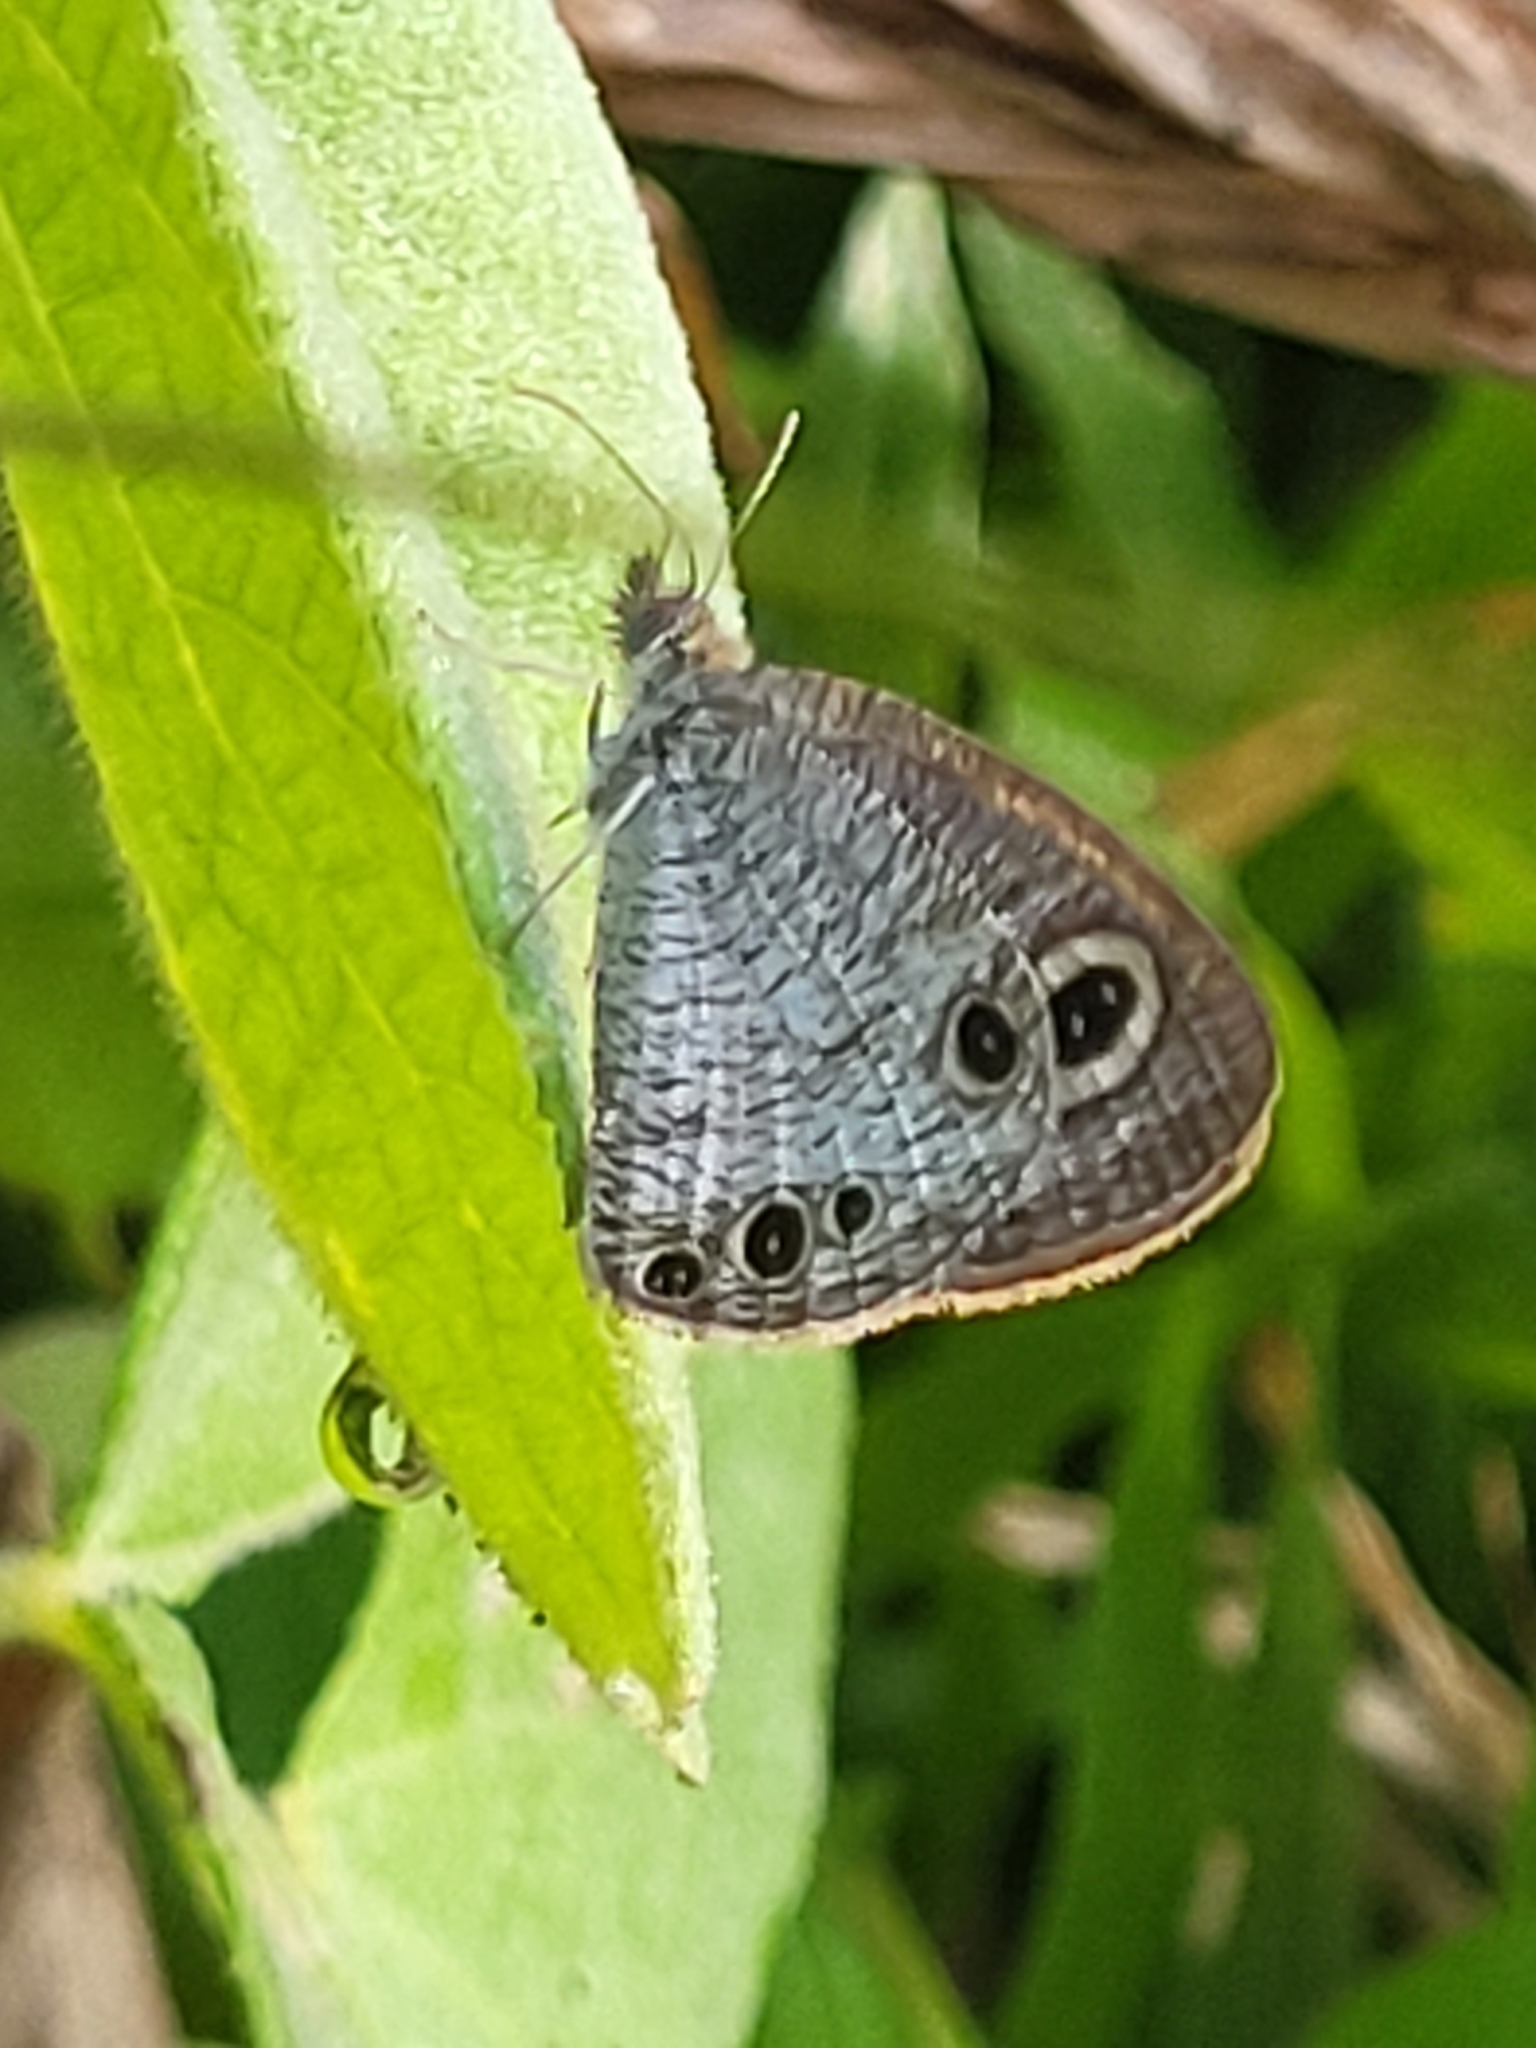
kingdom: Animalia
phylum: Arthropoda
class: Insecta
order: Lepidoptera
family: Nymphalidae
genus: Ypthima
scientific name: Ypthima huebneri
